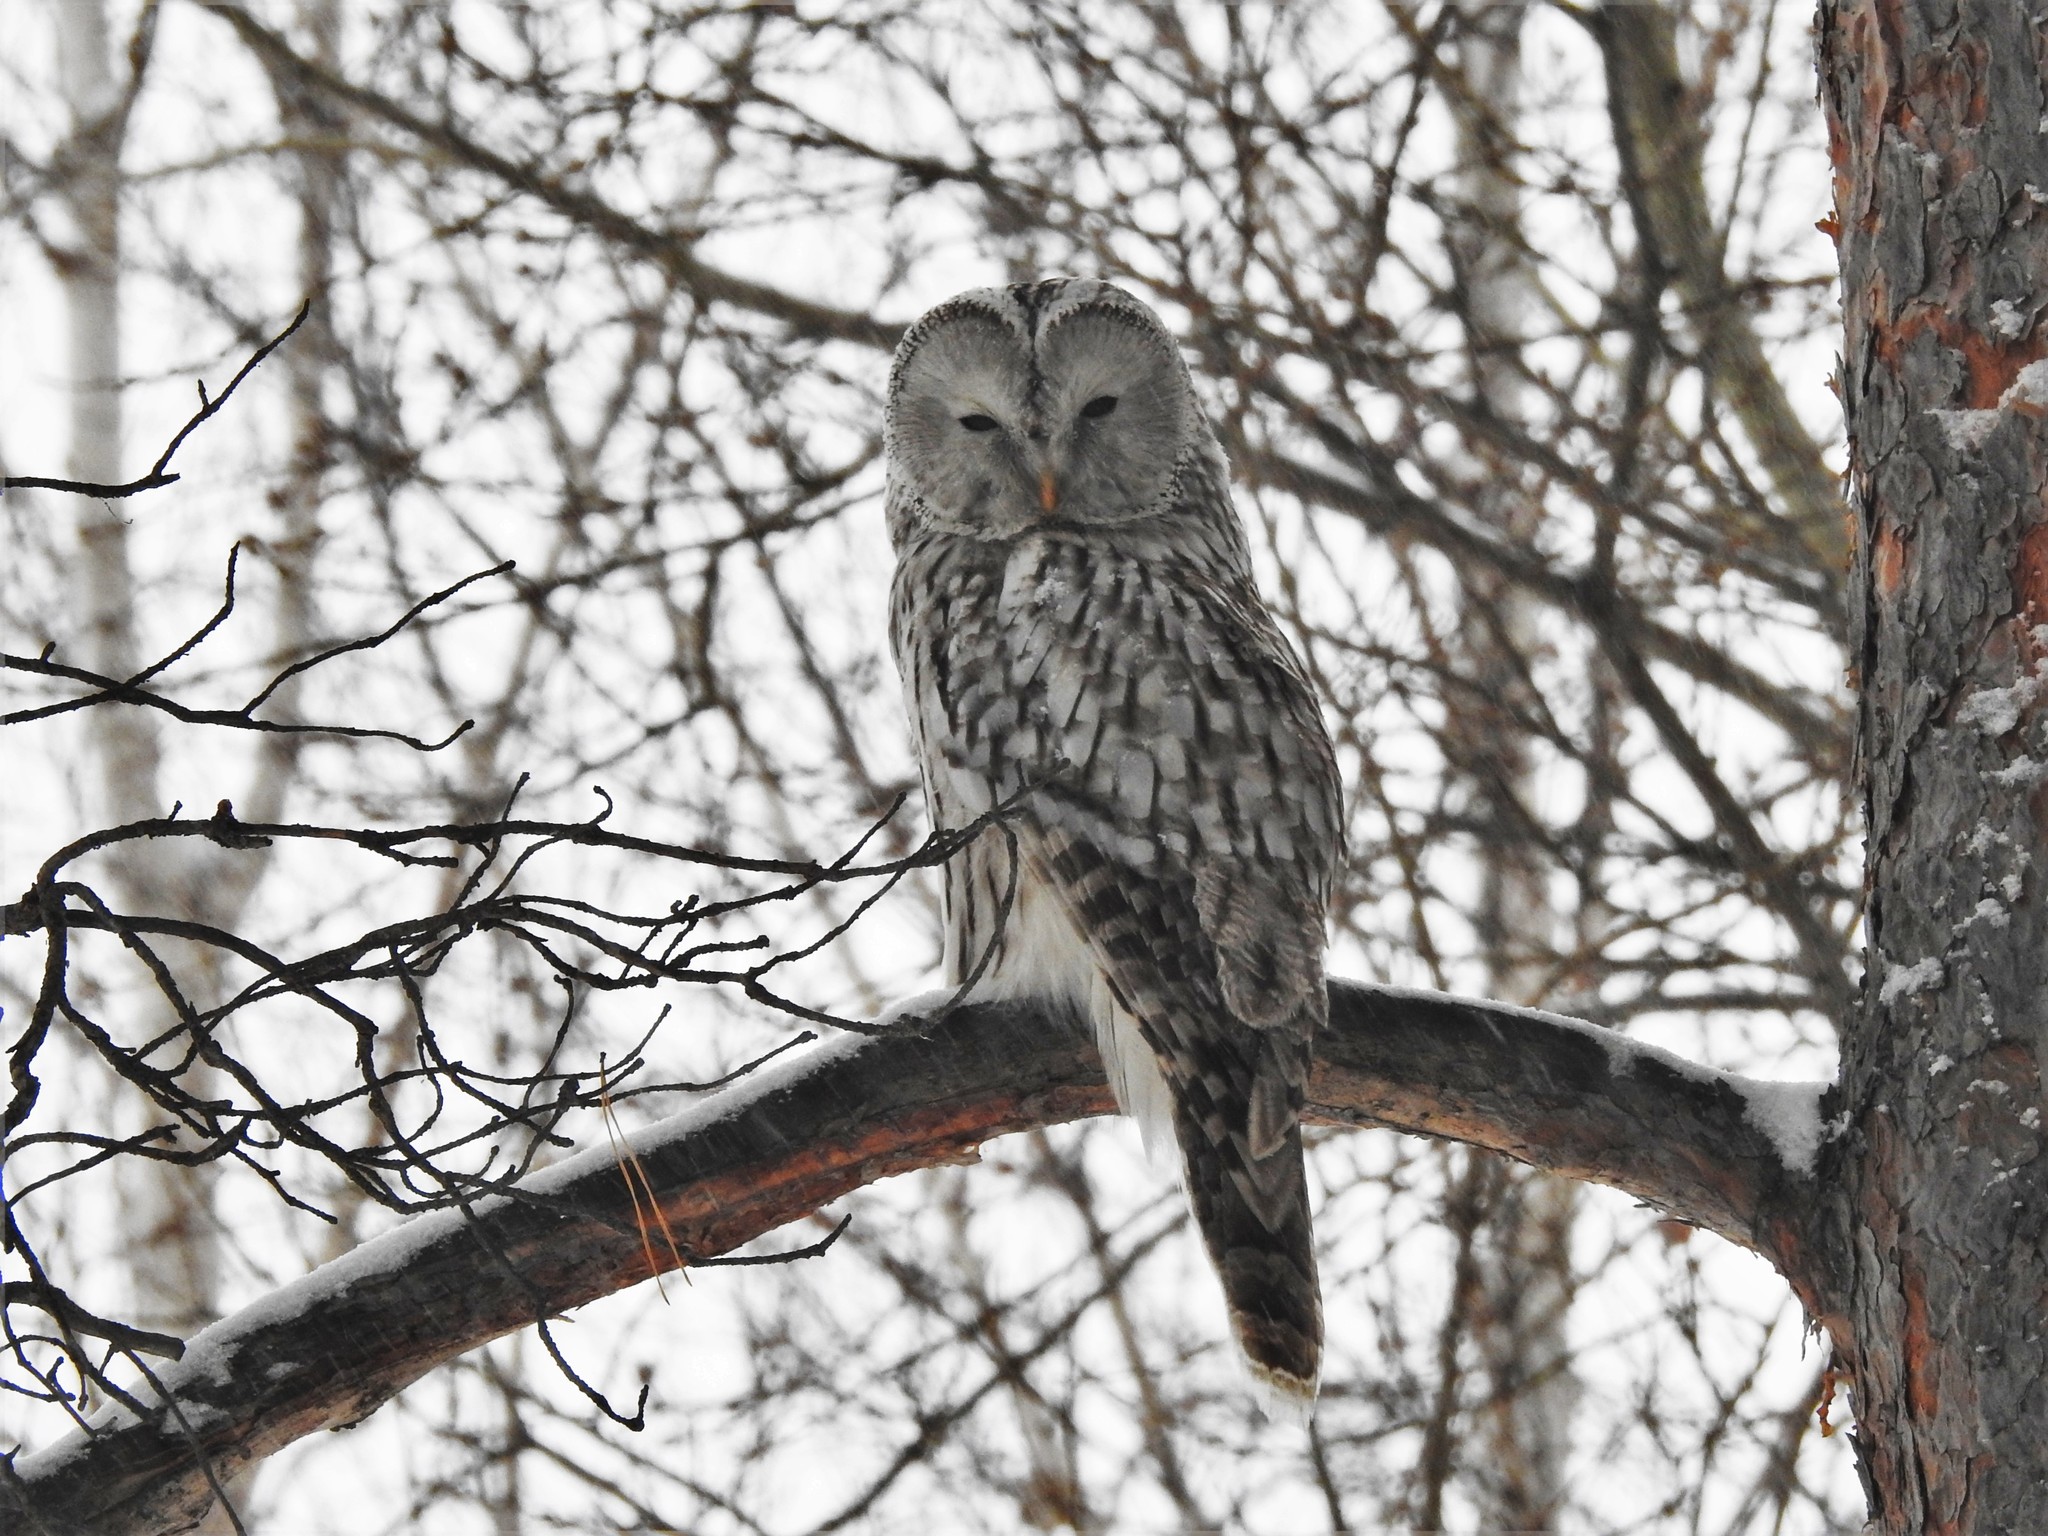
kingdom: Animalia
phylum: Chordata
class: Aves
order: Strigiformes
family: Strigidae
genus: Strix
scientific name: Strix uralensis
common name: Ural owl
